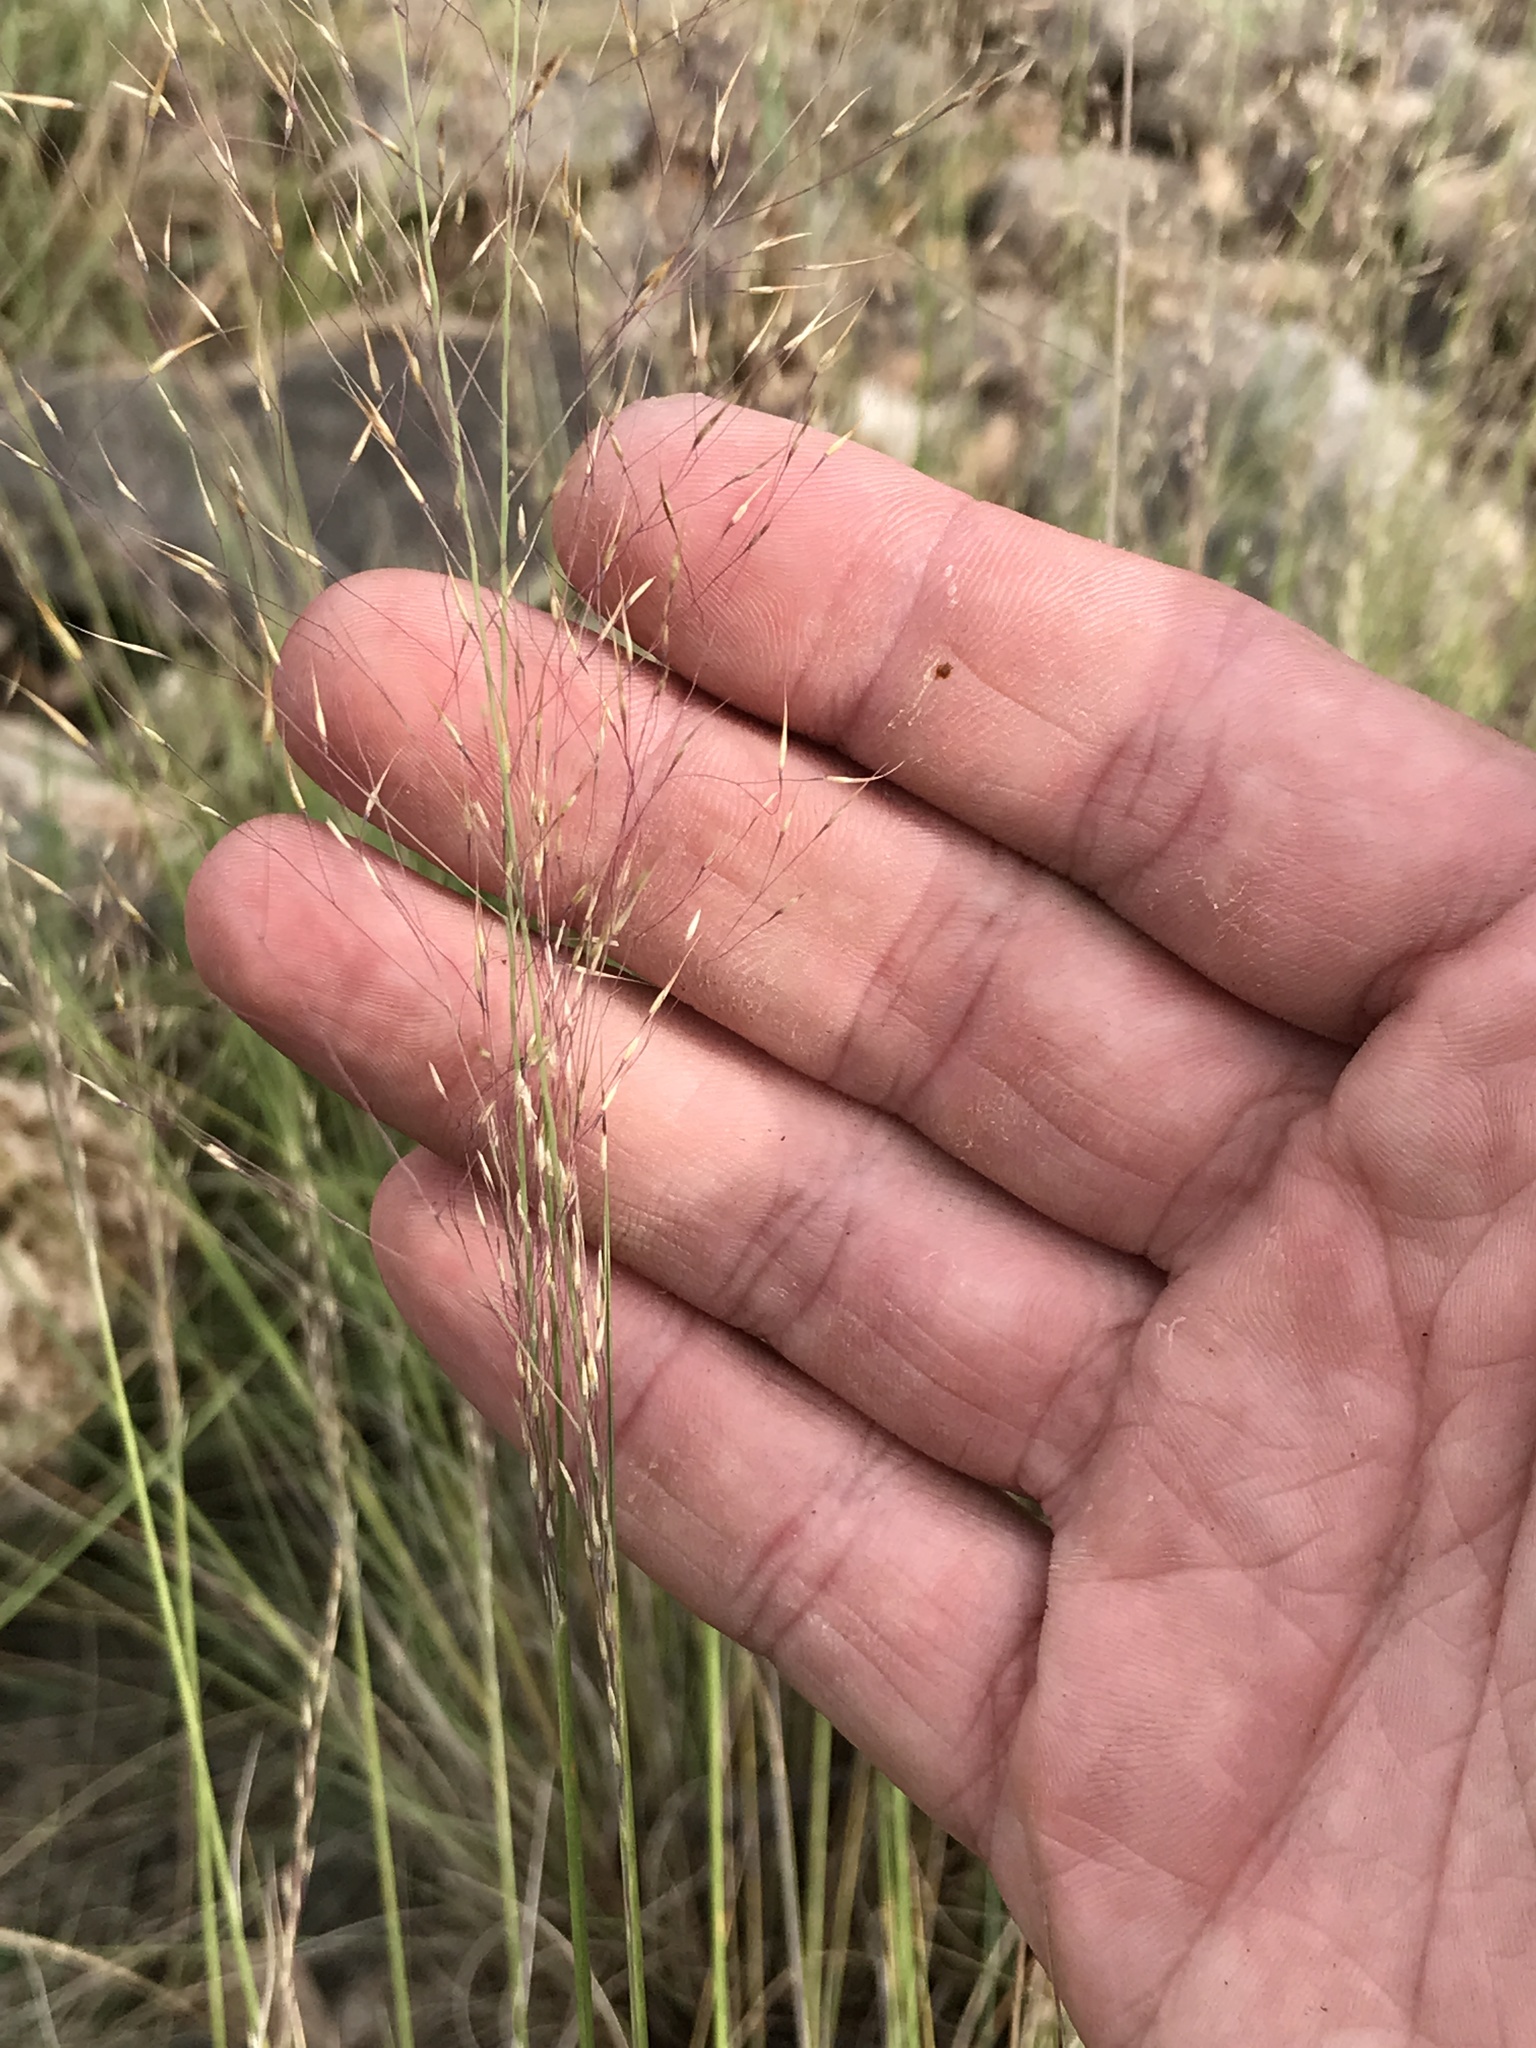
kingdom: Plantae
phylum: Tracheophyta
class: Liliopsida
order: Poales
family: Poaceae
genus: Muhlenbergia
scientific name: Muhlenbergia reverchonii
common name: Seep muhly
